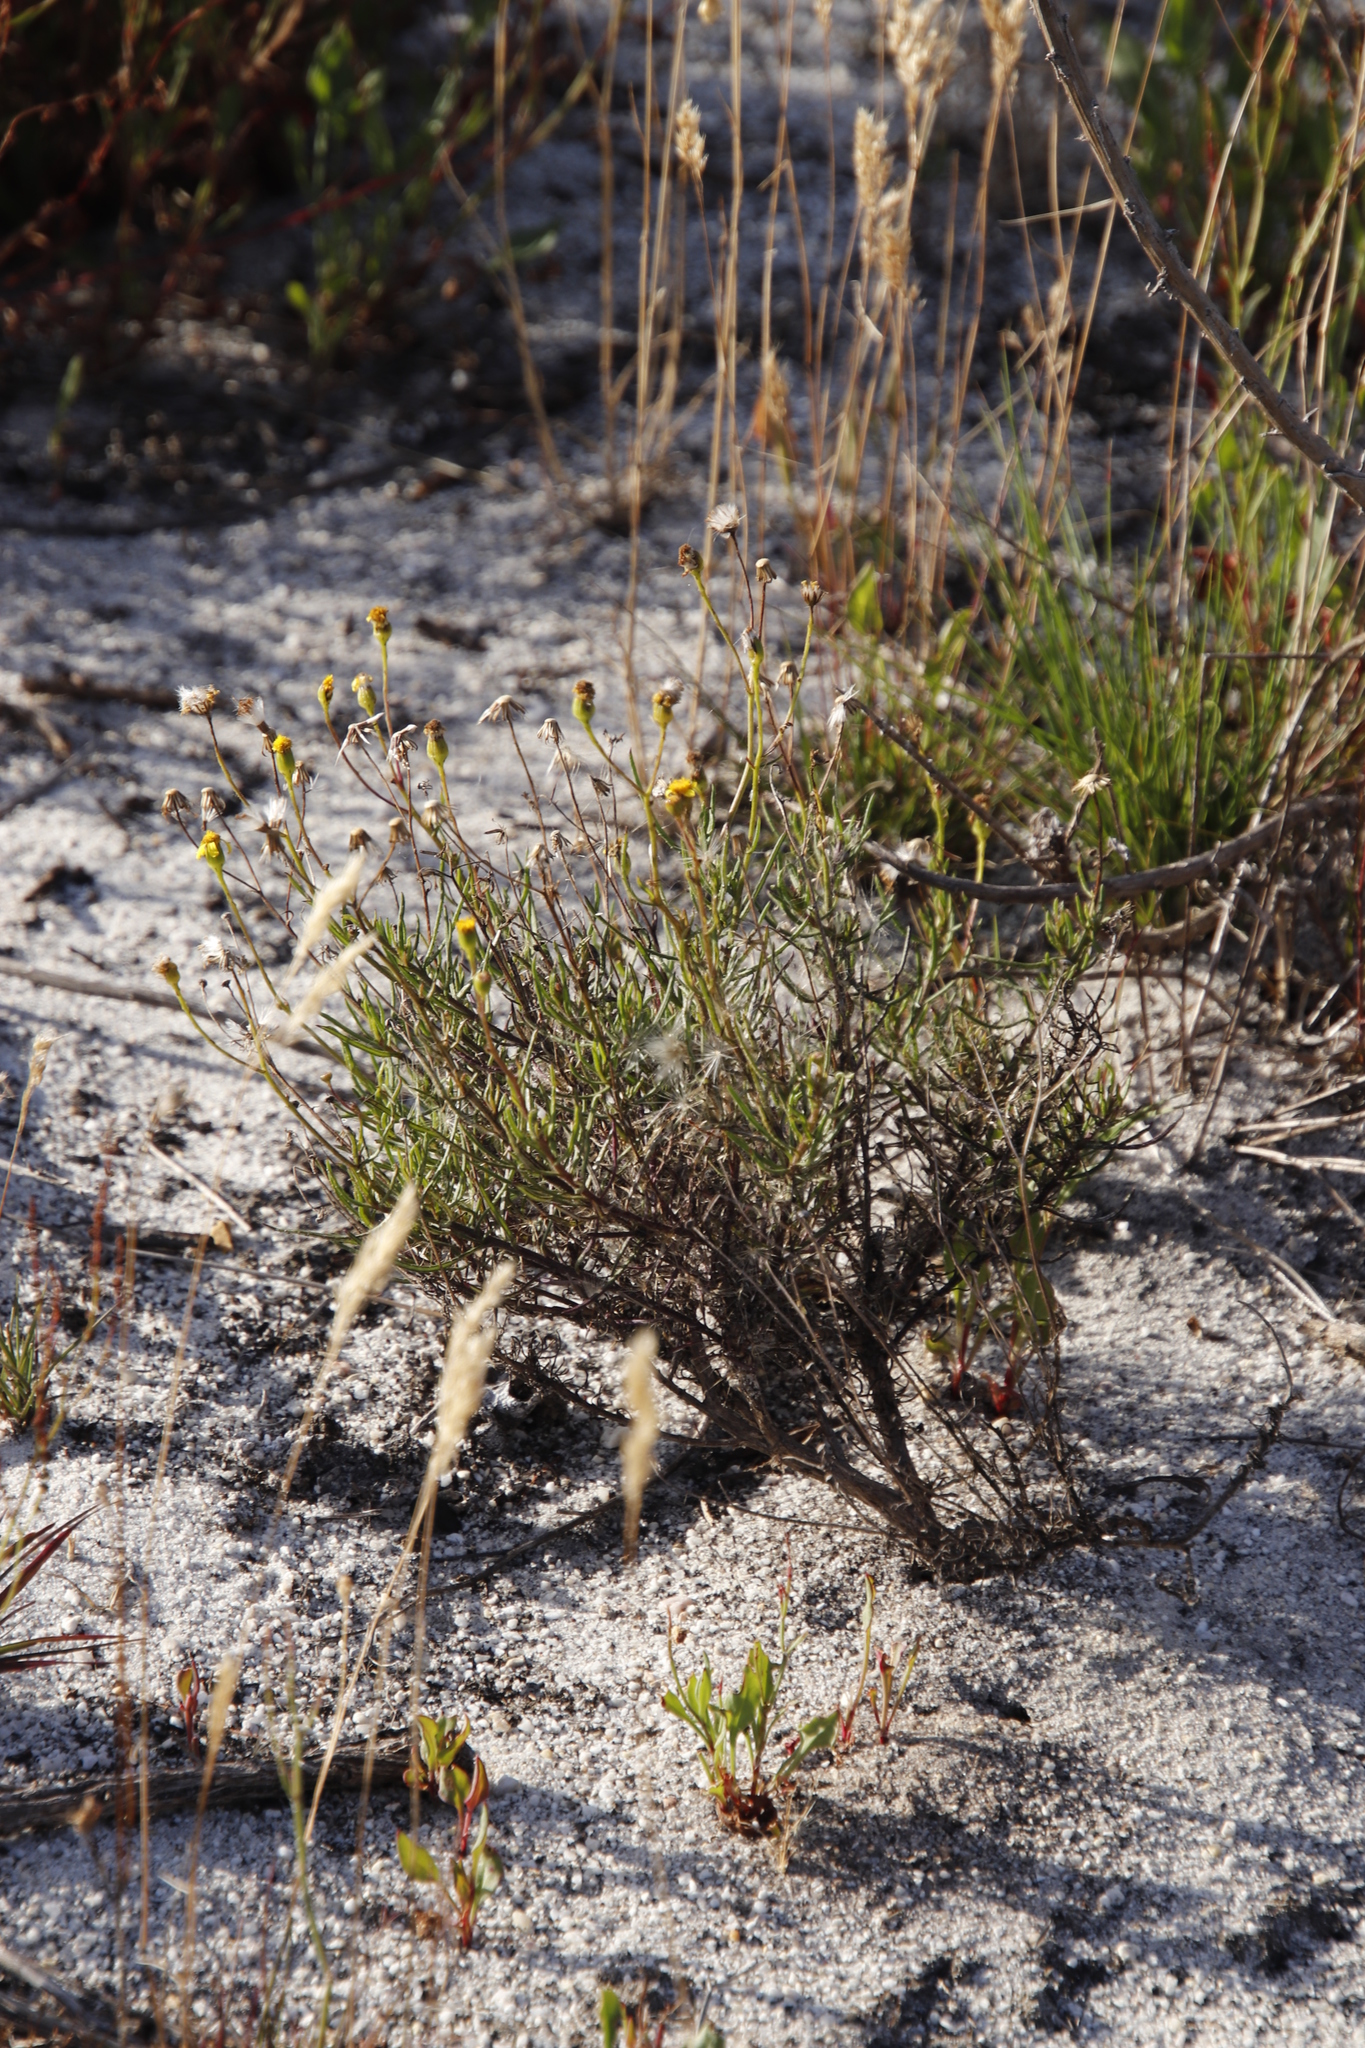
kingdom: Plantae
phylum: Tracheophyta
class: Magnoliopsida
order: Asterales
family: Asteraceae
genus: Senecio
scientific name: Senecio burchellii
